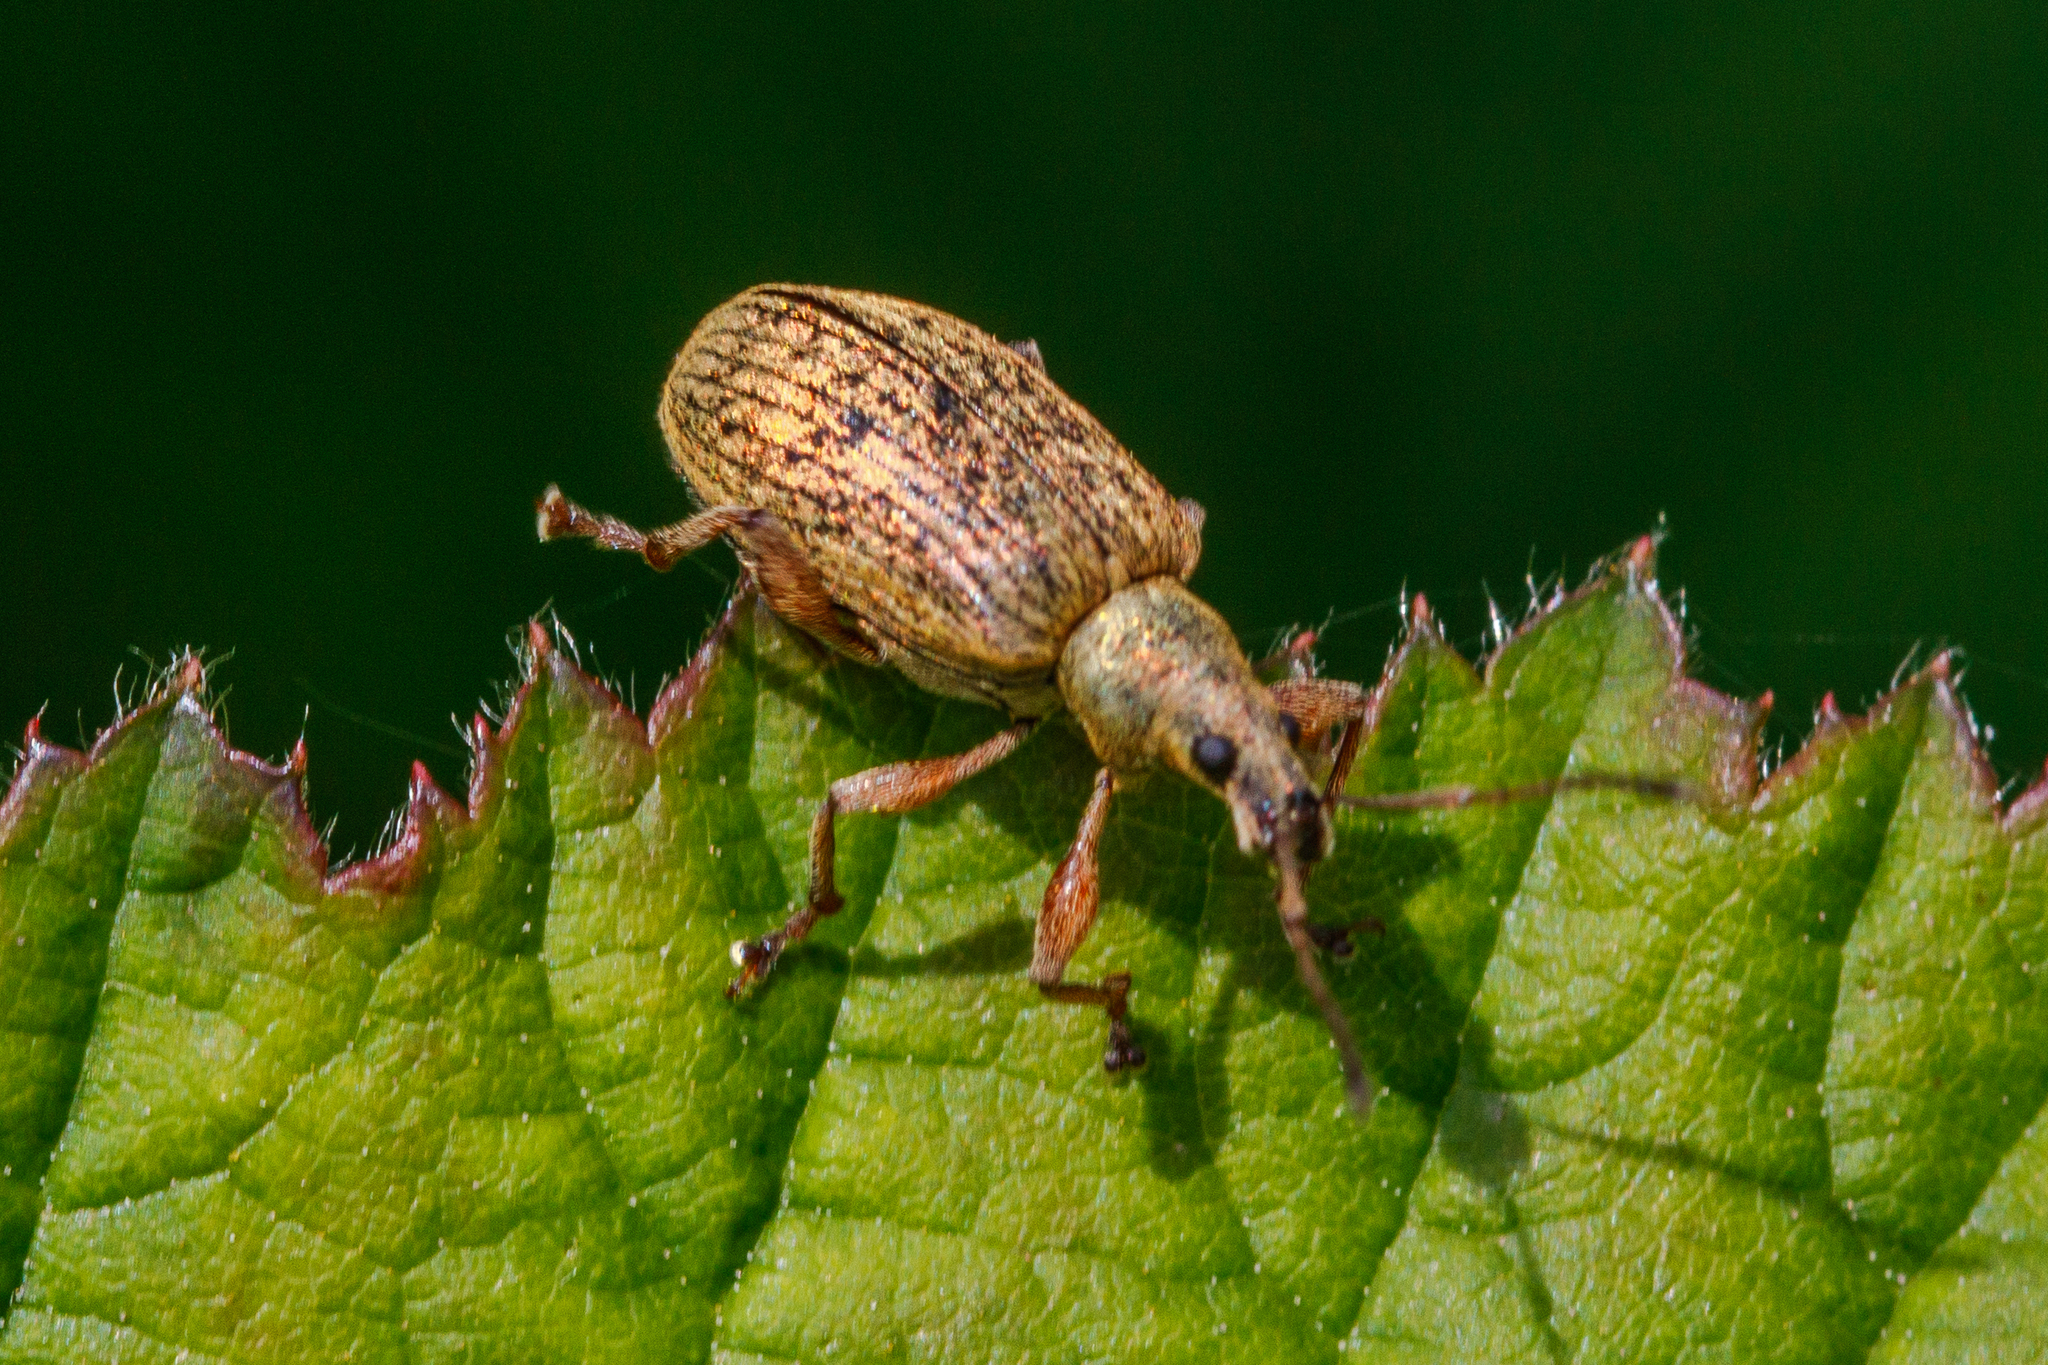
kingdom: Animalia
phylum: Arthropoda
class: Insecta
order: Coleoptera
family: Curculionidae
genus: Phyllobius
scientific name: Phyllobius pyri
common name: Common leaf weevil
